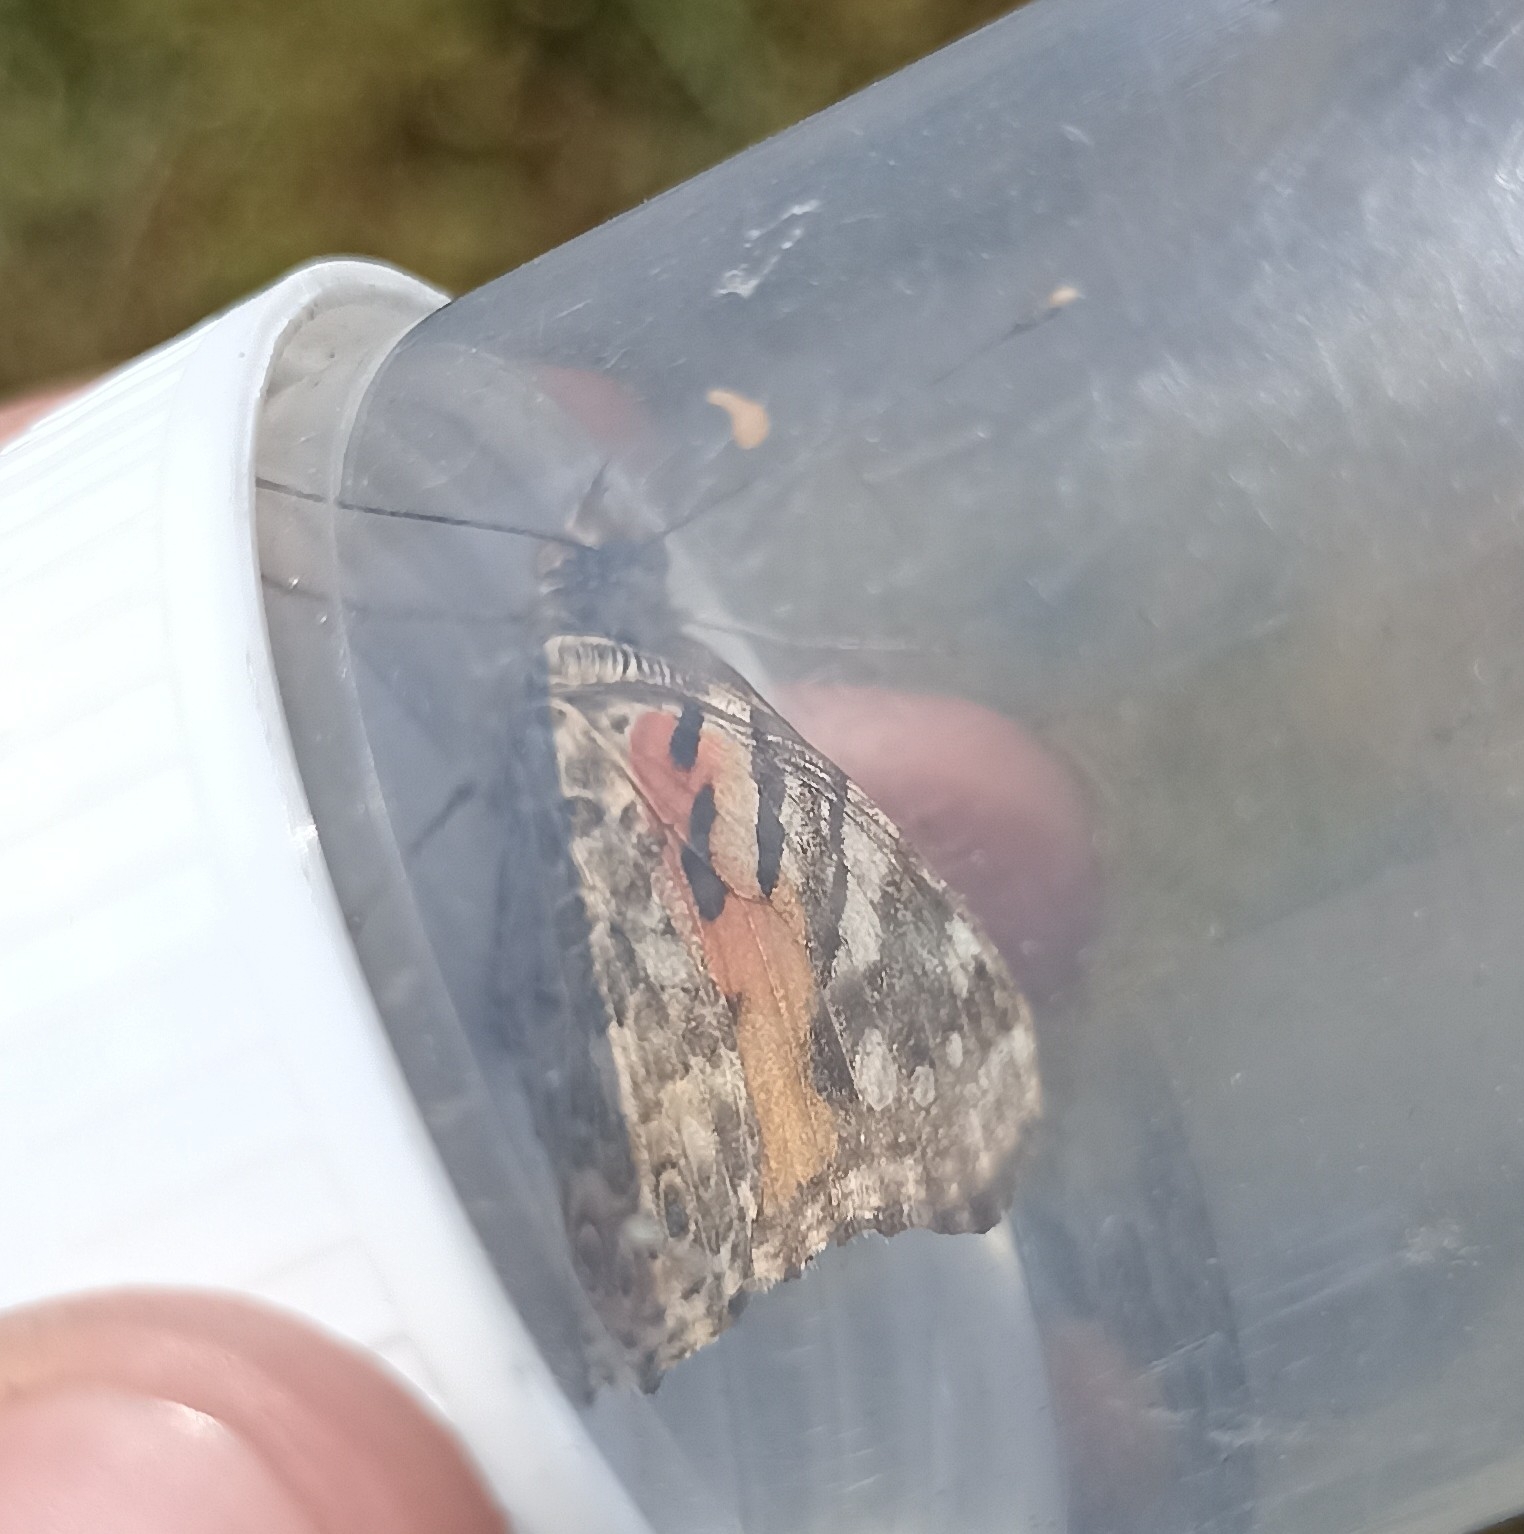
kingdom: Animalia
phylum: Arthropoda
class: Insecta
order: Lepidoptera
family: Nymphalidae
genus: Vanessa
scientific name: Vanessa cardui
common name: Painted lady
